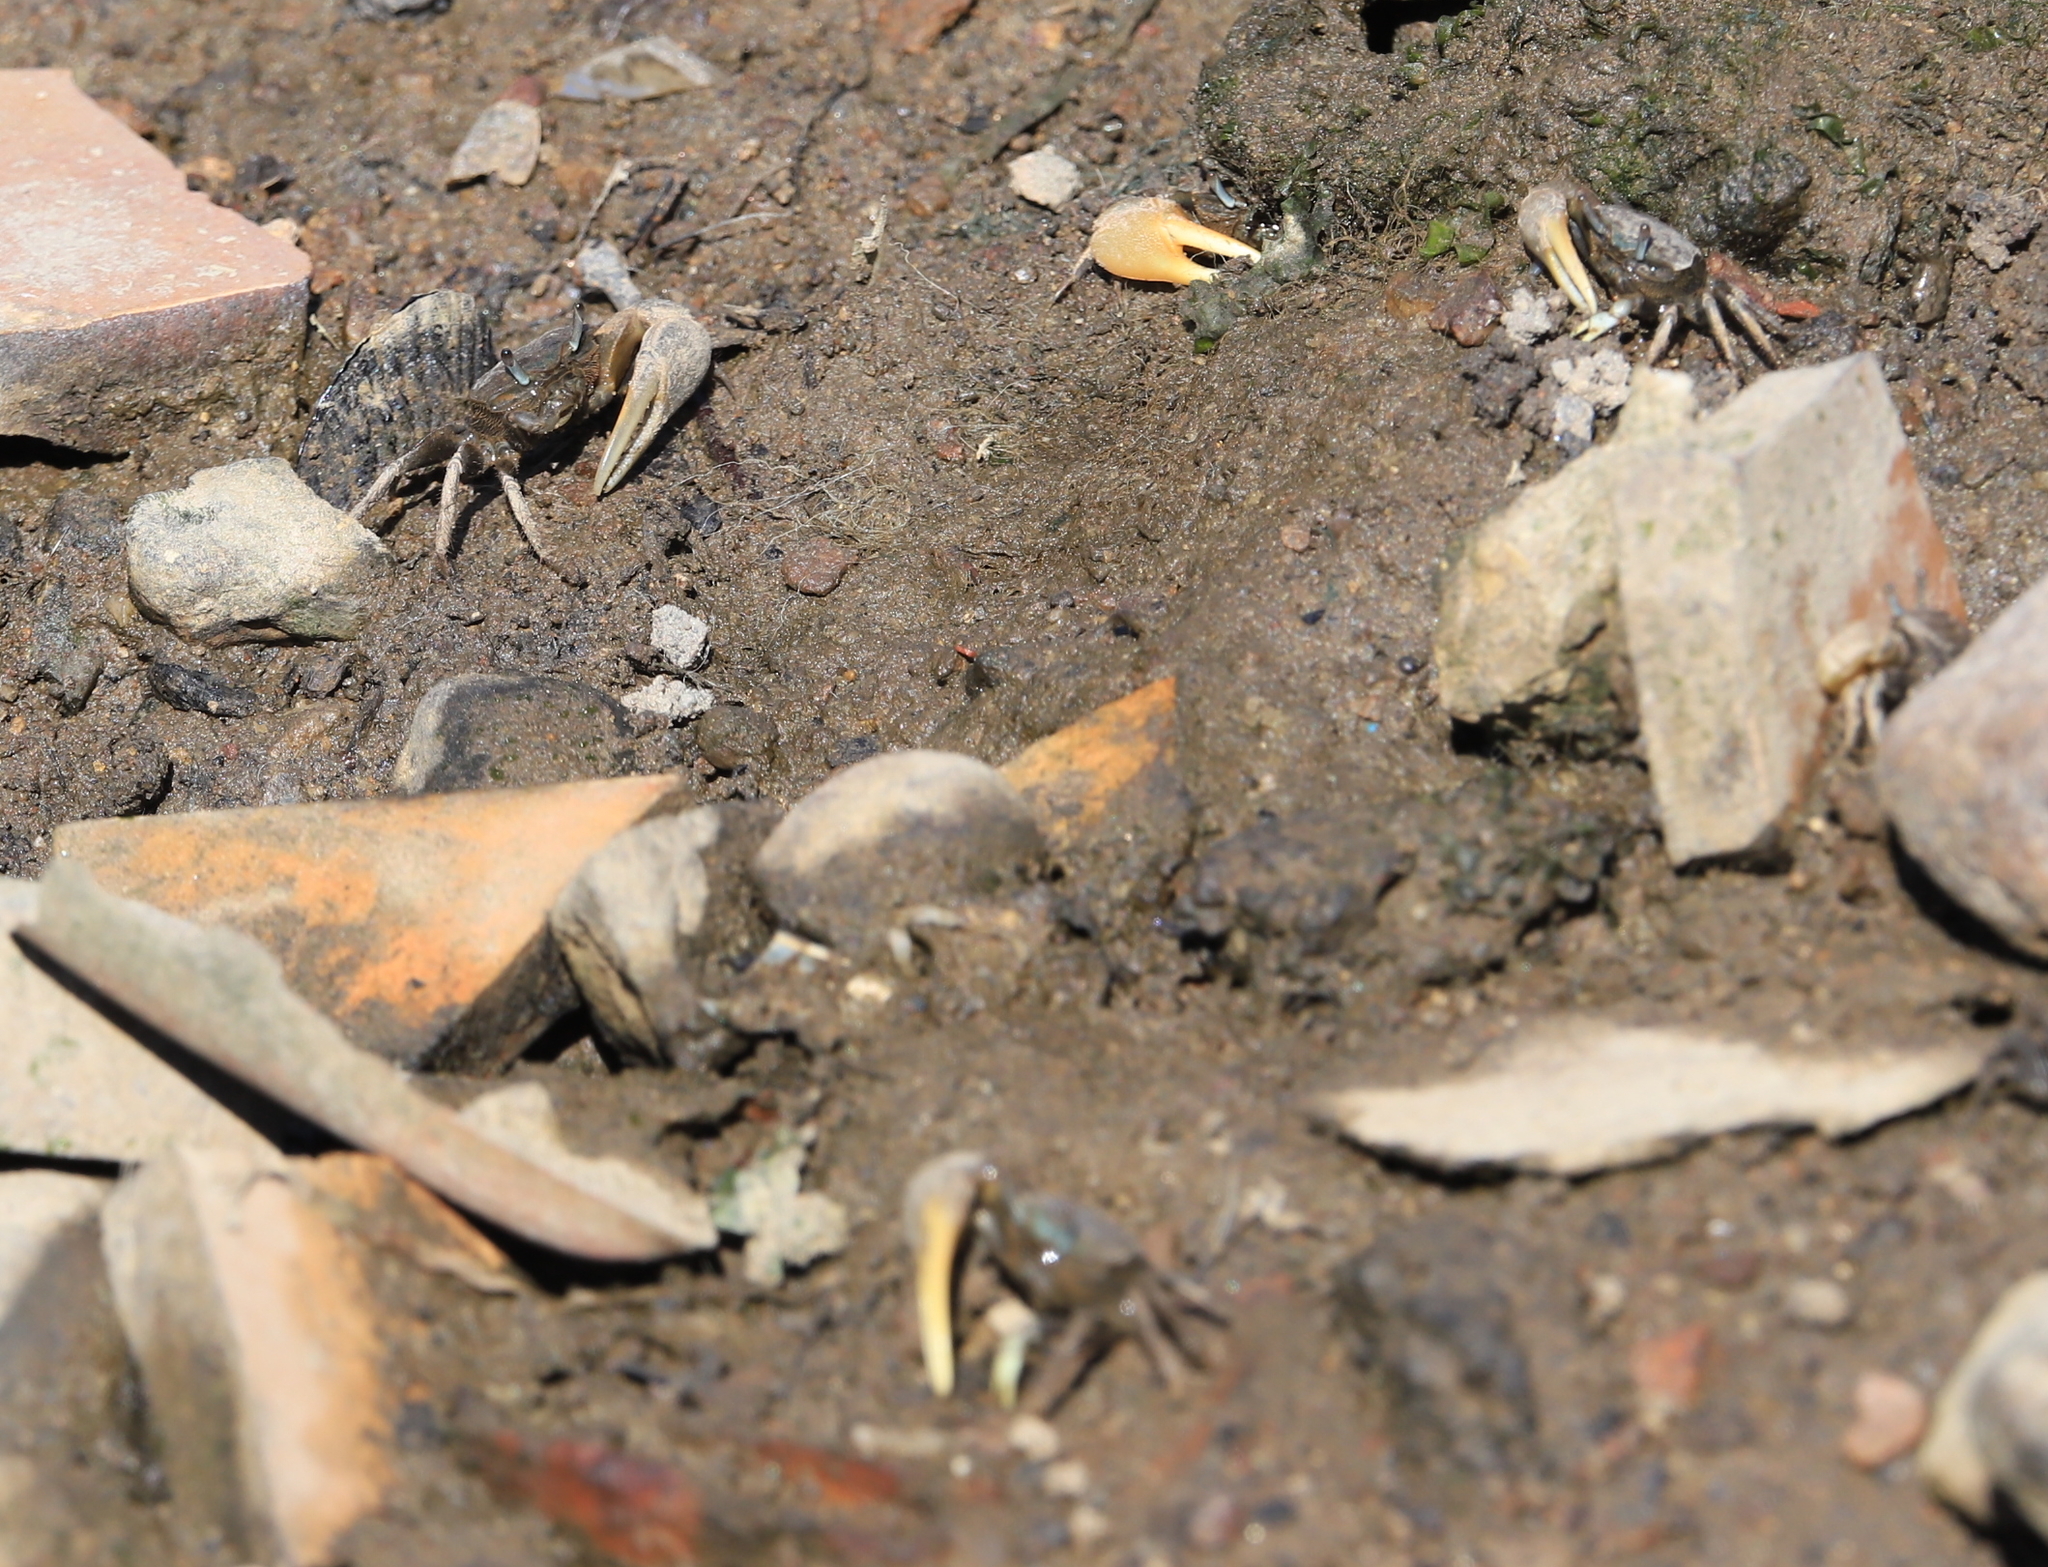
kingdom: Animalia
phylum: Arthropoda
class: Malacostraca
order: Decapoda
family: Ocypodidae
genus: Minuca
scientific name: Minuca pugnax
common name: Mud fiddler crab
